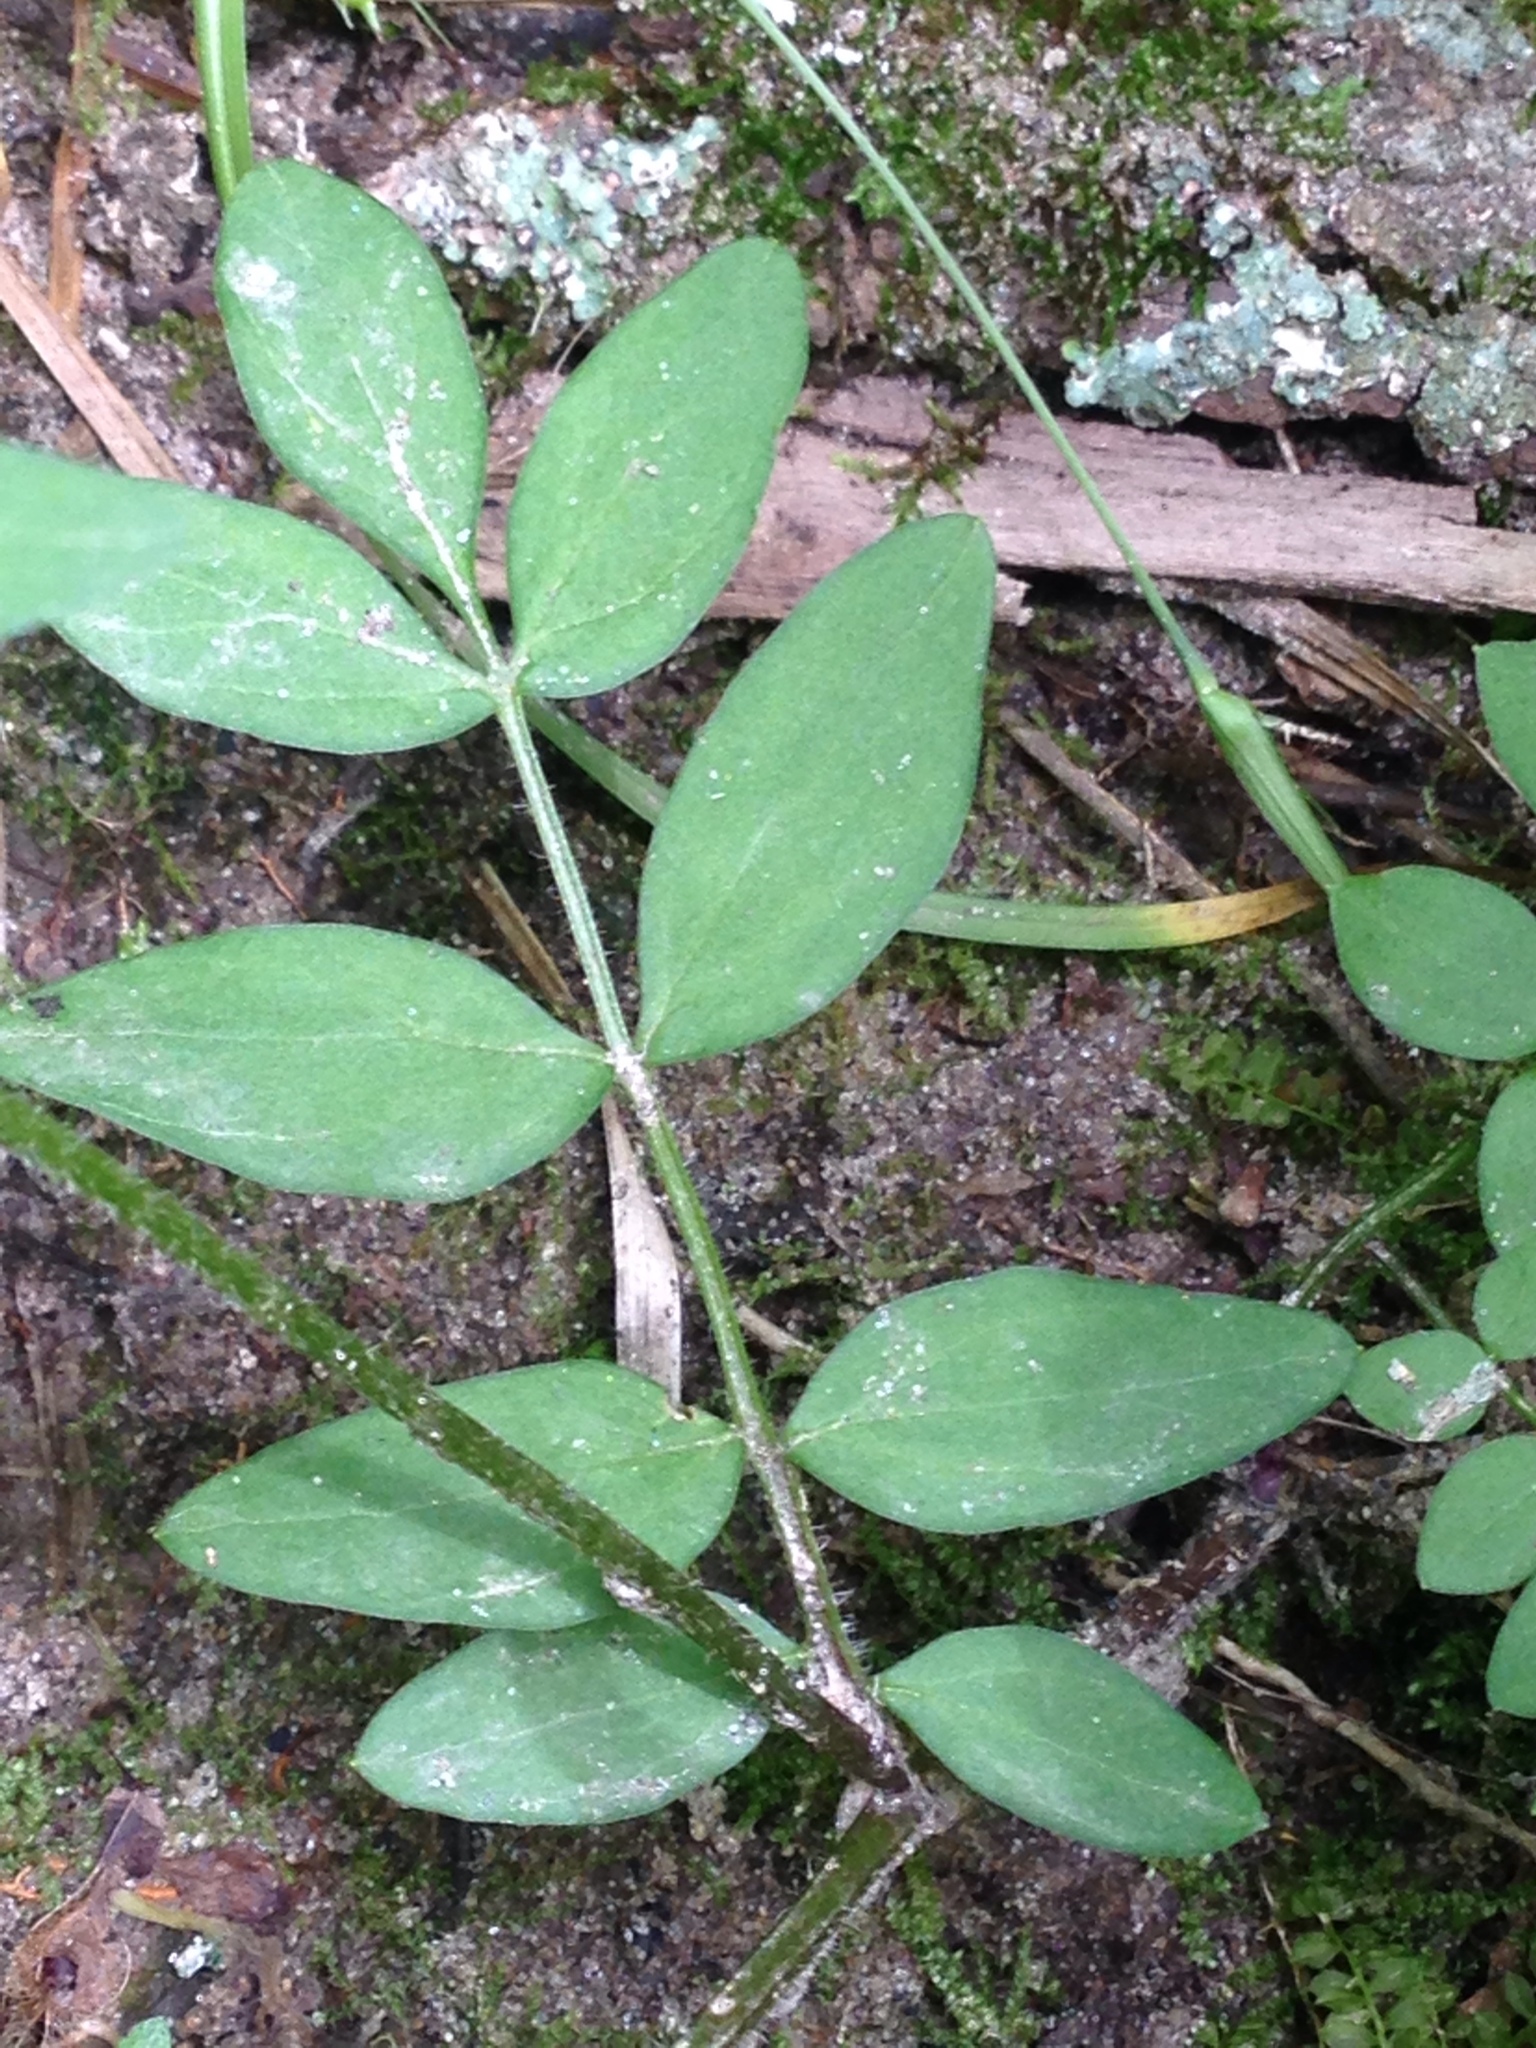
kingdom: Plantae
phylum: Tracheophyta
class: Magnoliopsida
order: Ericales
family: Polemoniaceae
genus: Polemonium
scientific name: Polemonium reptans
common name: Creeping jacob's-ladder
